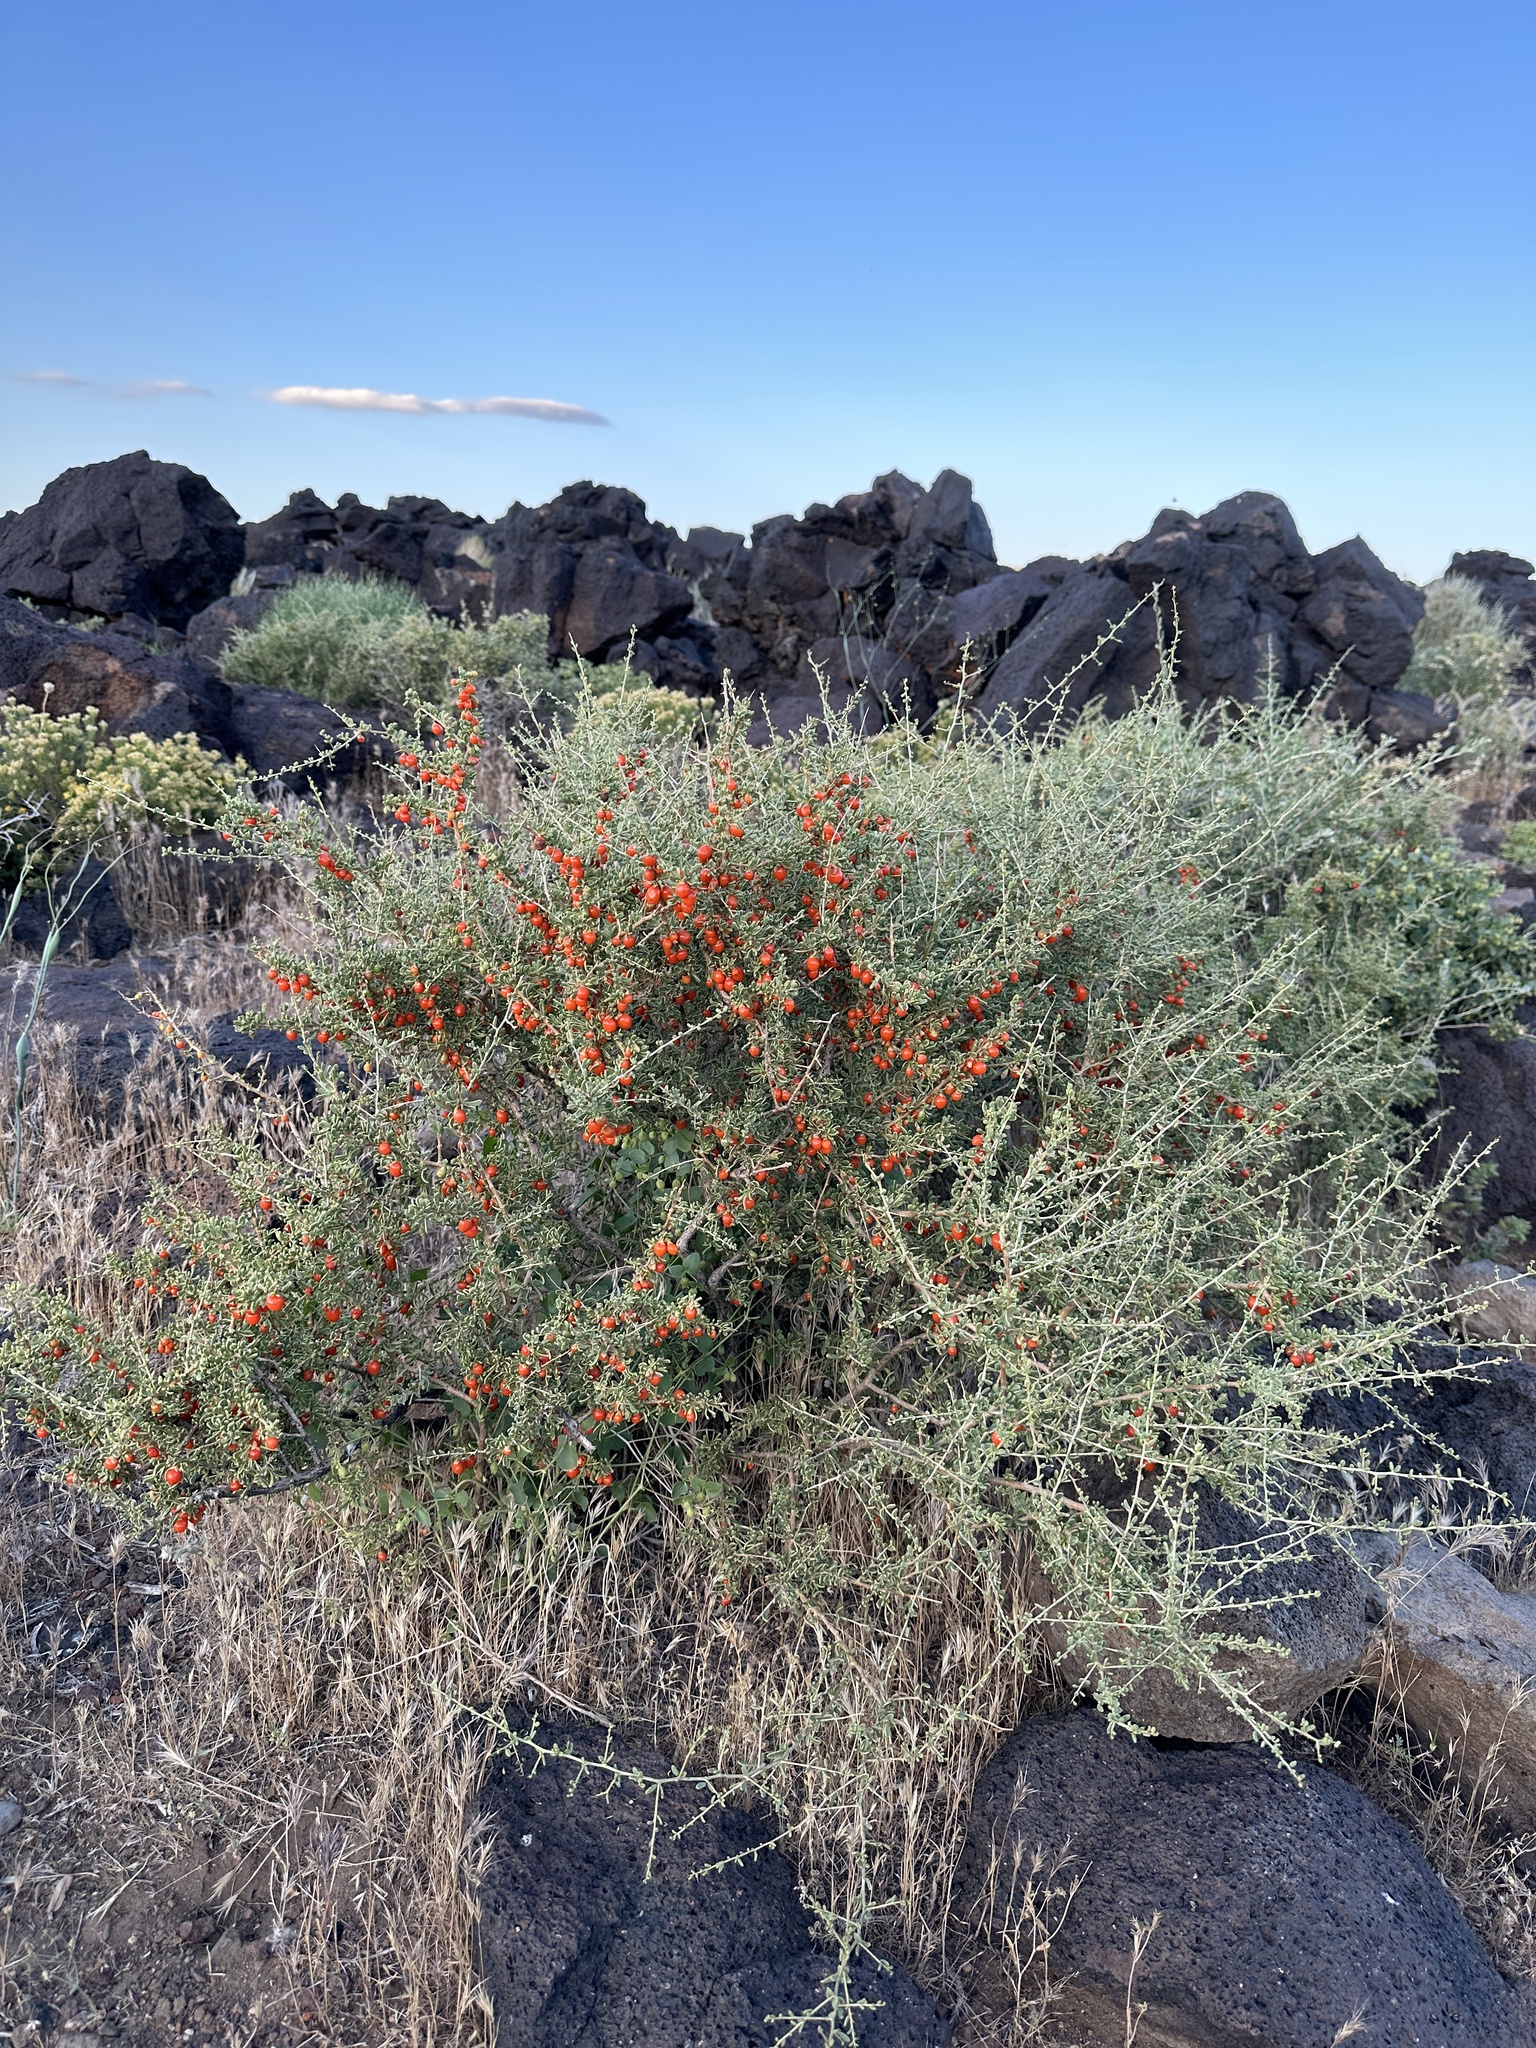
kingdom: Plantae
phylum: Tracheophyta
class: Magnoliopsida
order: Solanales
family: Solanaceae
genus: Lycium
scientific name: Lycium andersonii
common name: Water-jacket
